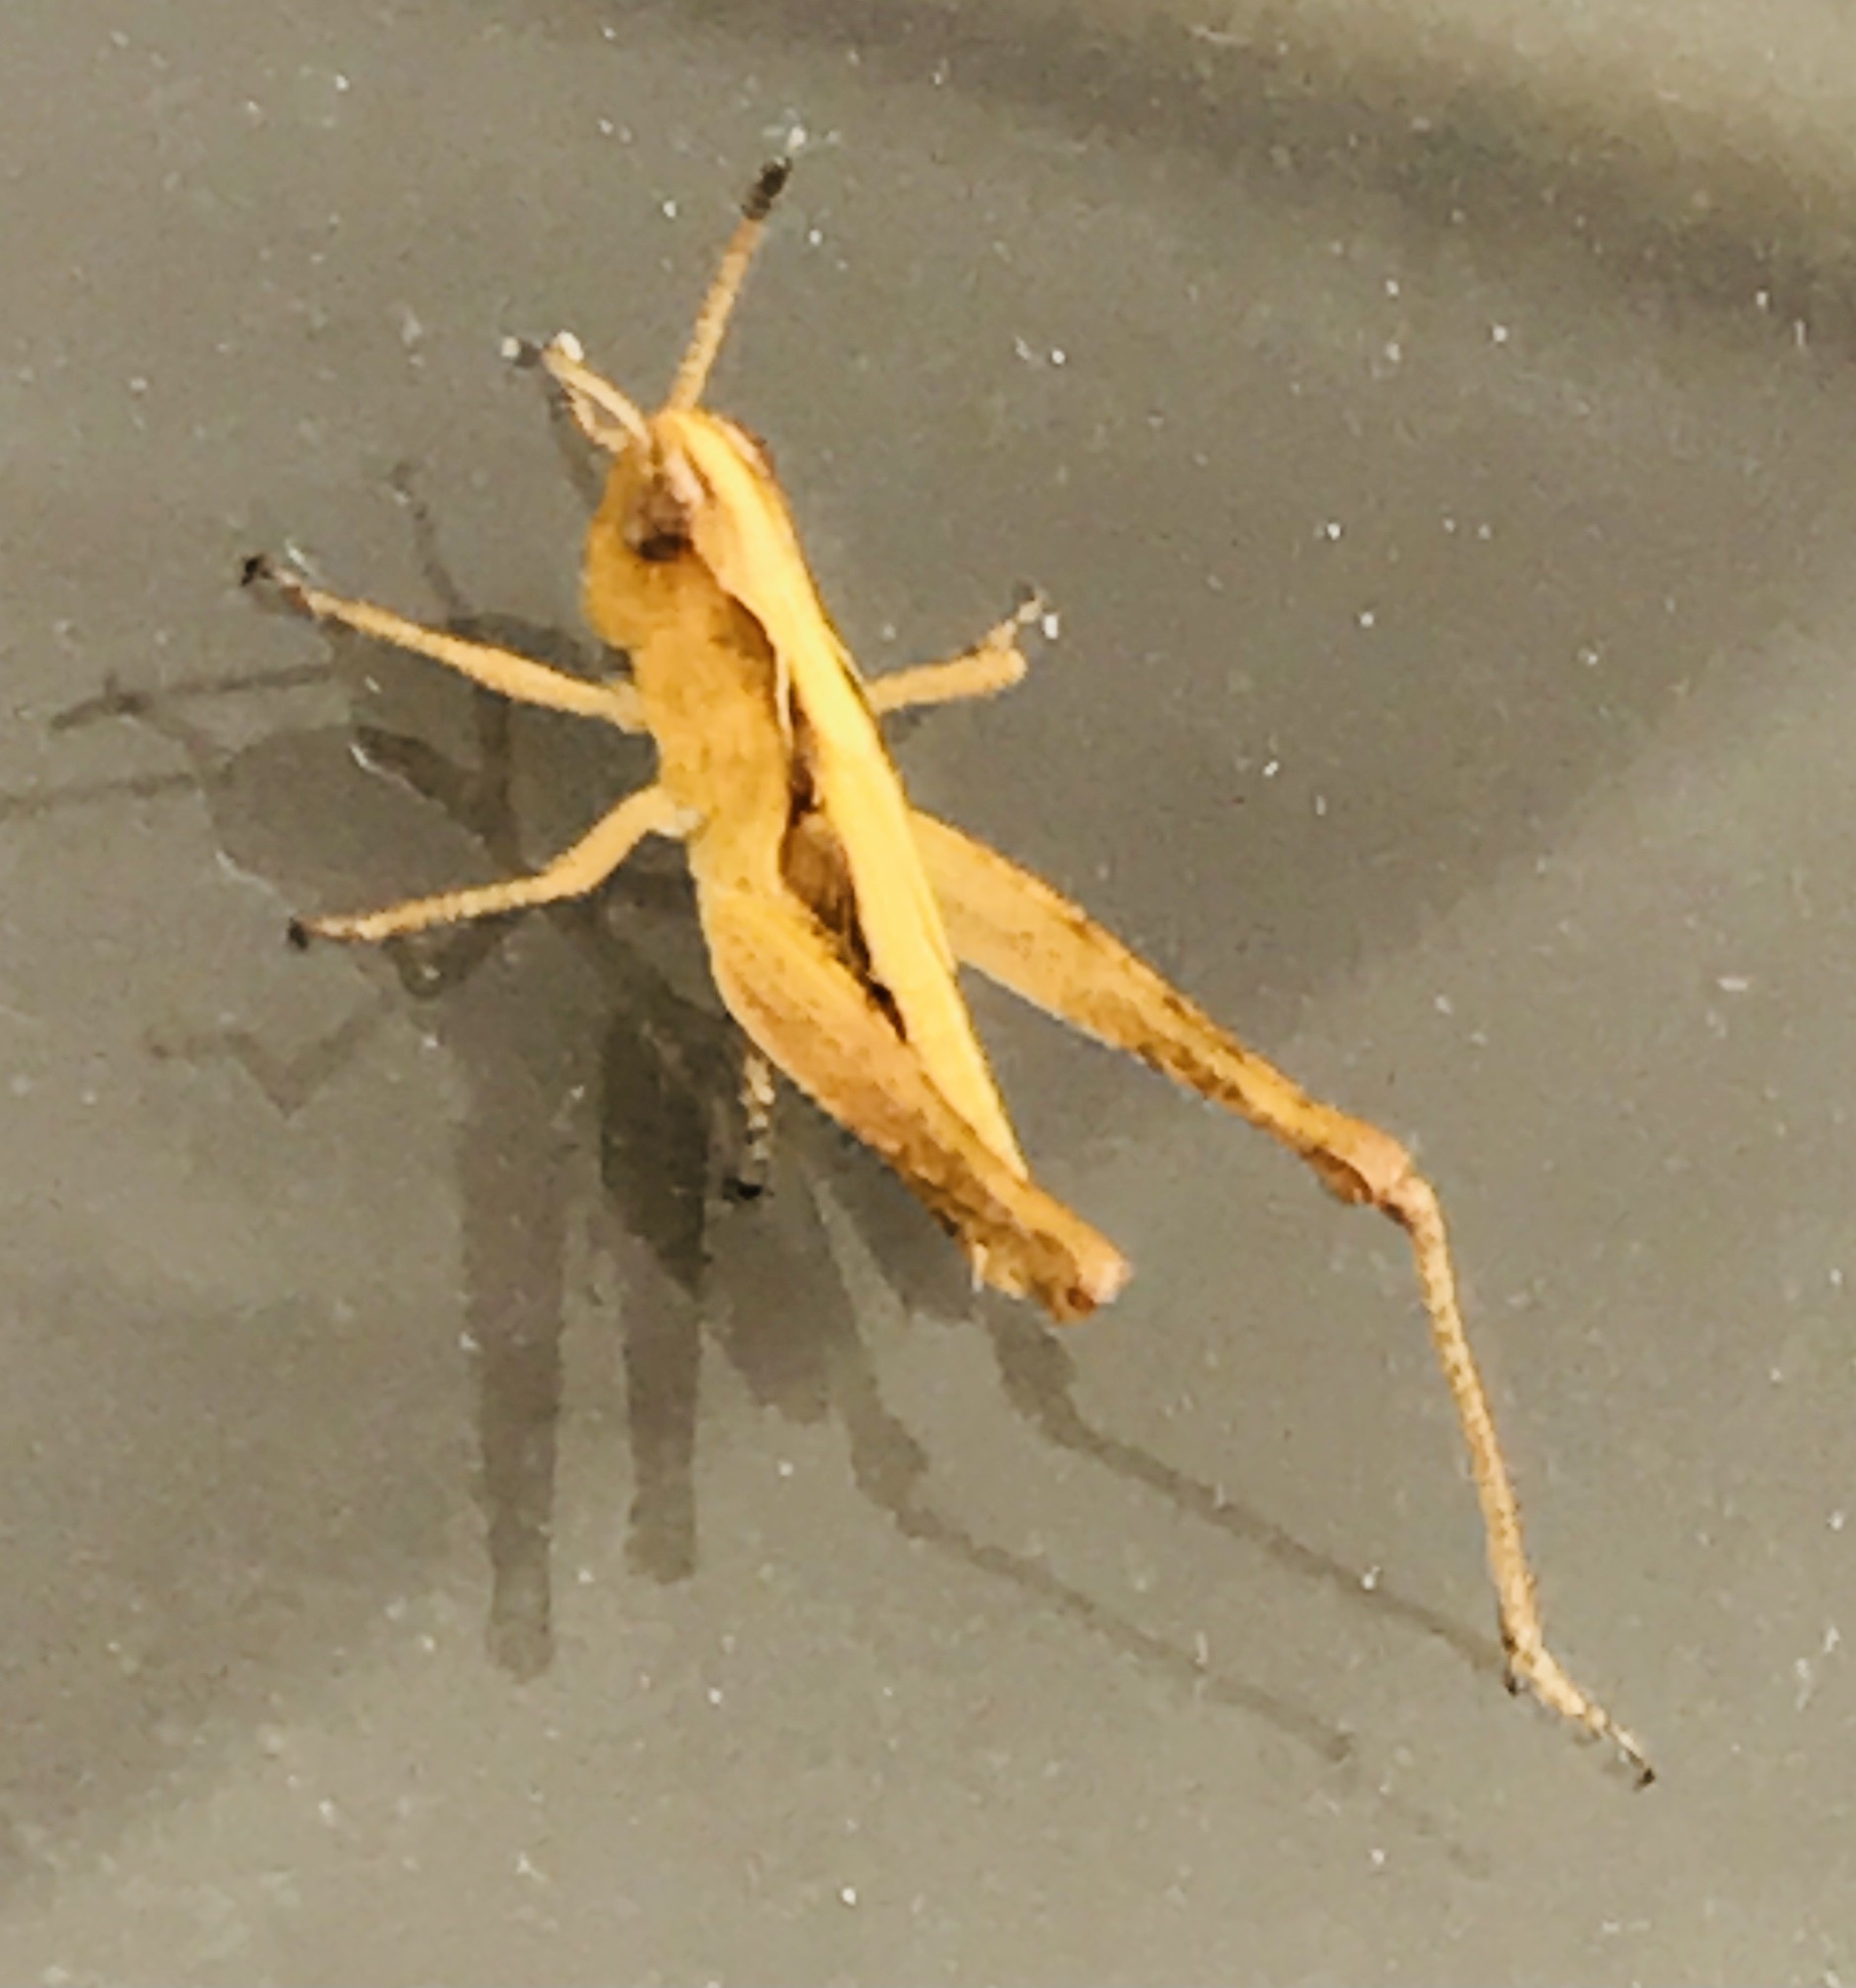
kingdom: Animalia
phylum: Arthropoda
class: Insecta
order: Orthoptera
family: Acrididae
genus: Gomphocerippus
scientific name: Gomphocerippus rufus
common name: Rufous grasshopper
